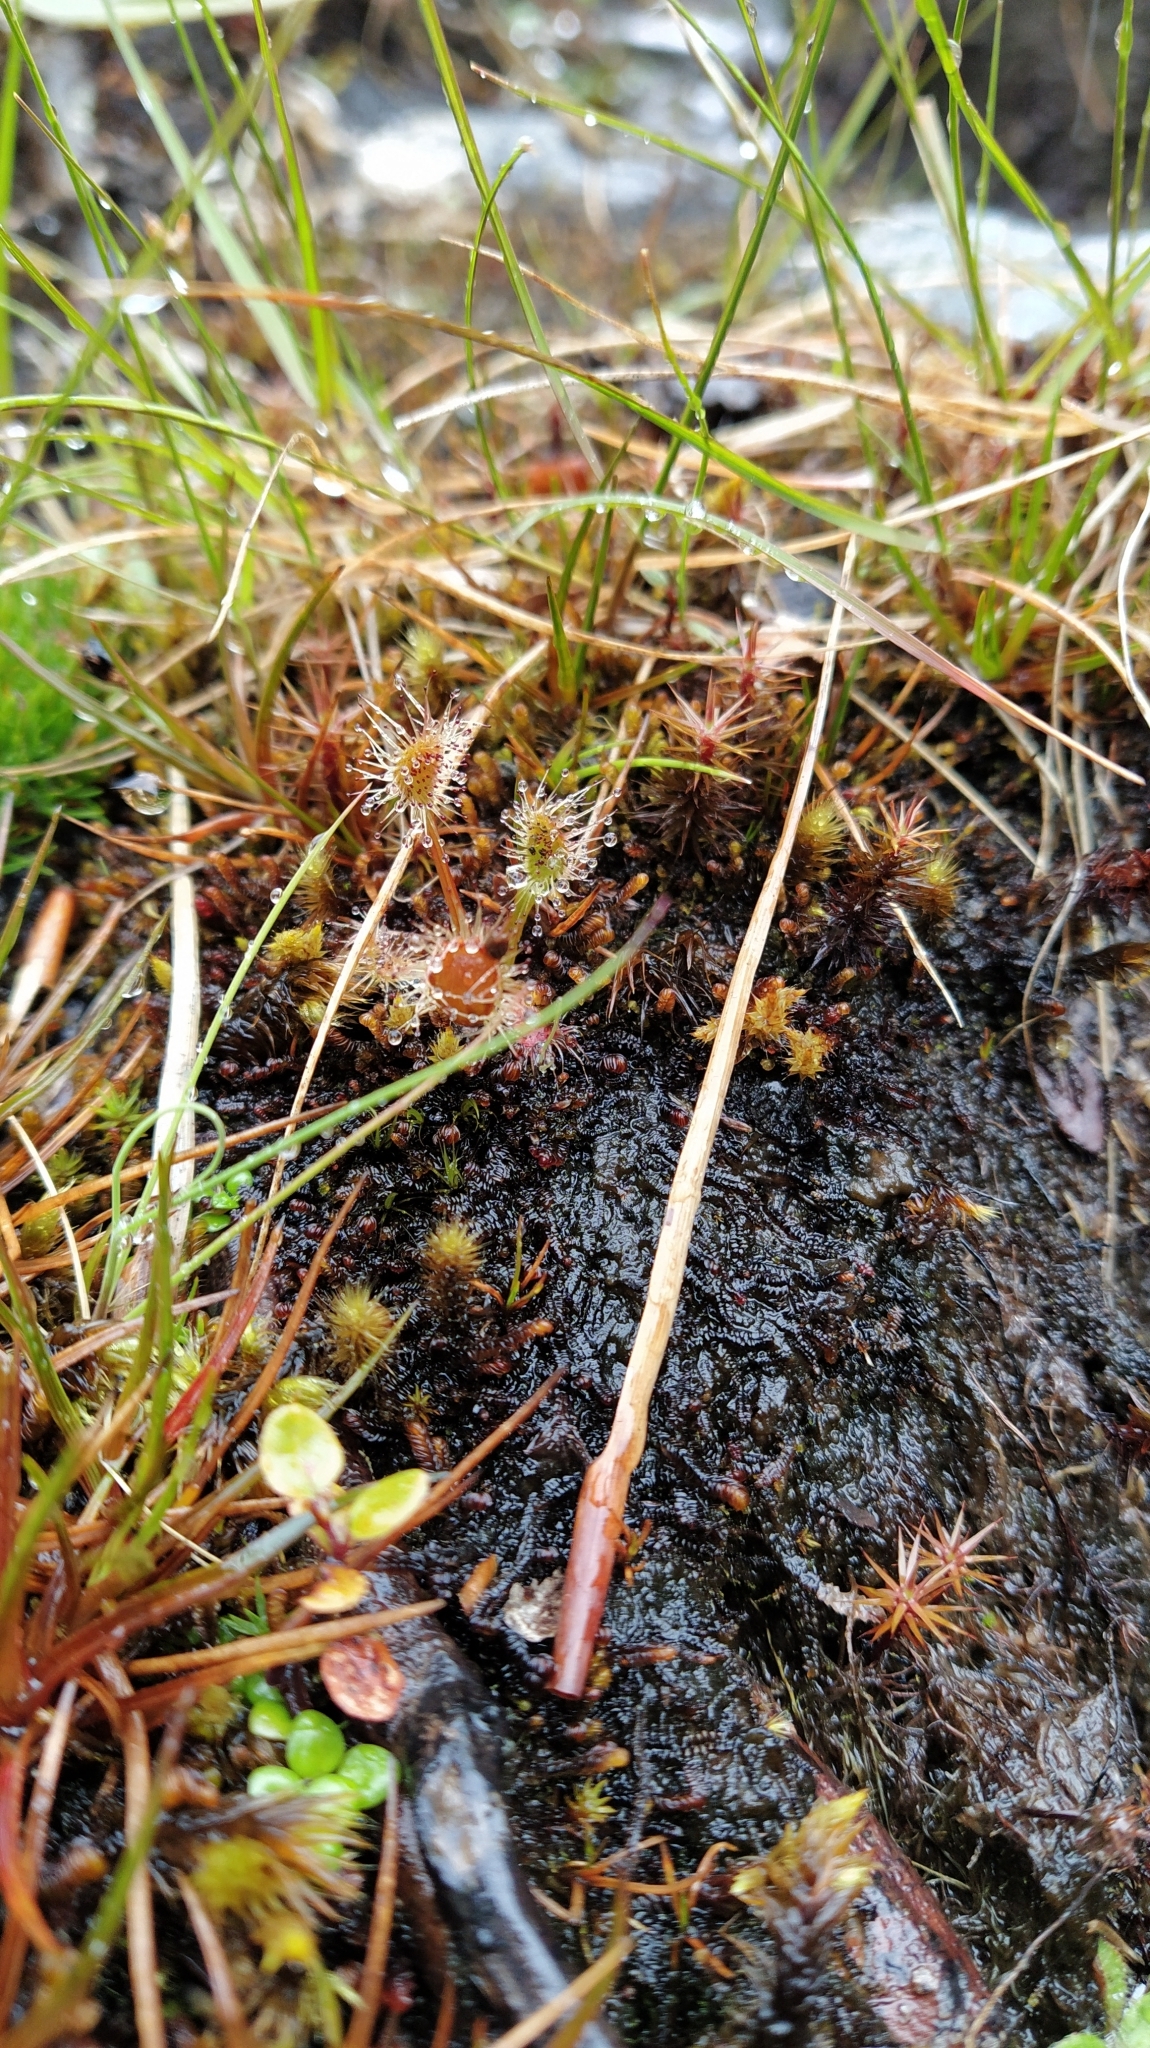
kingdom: Plantae
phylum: Tracheophyta
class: Magnoliopsida
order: Caryophyllales
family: Droseraceae
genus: Drosera
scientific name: Drosera stenopetala
